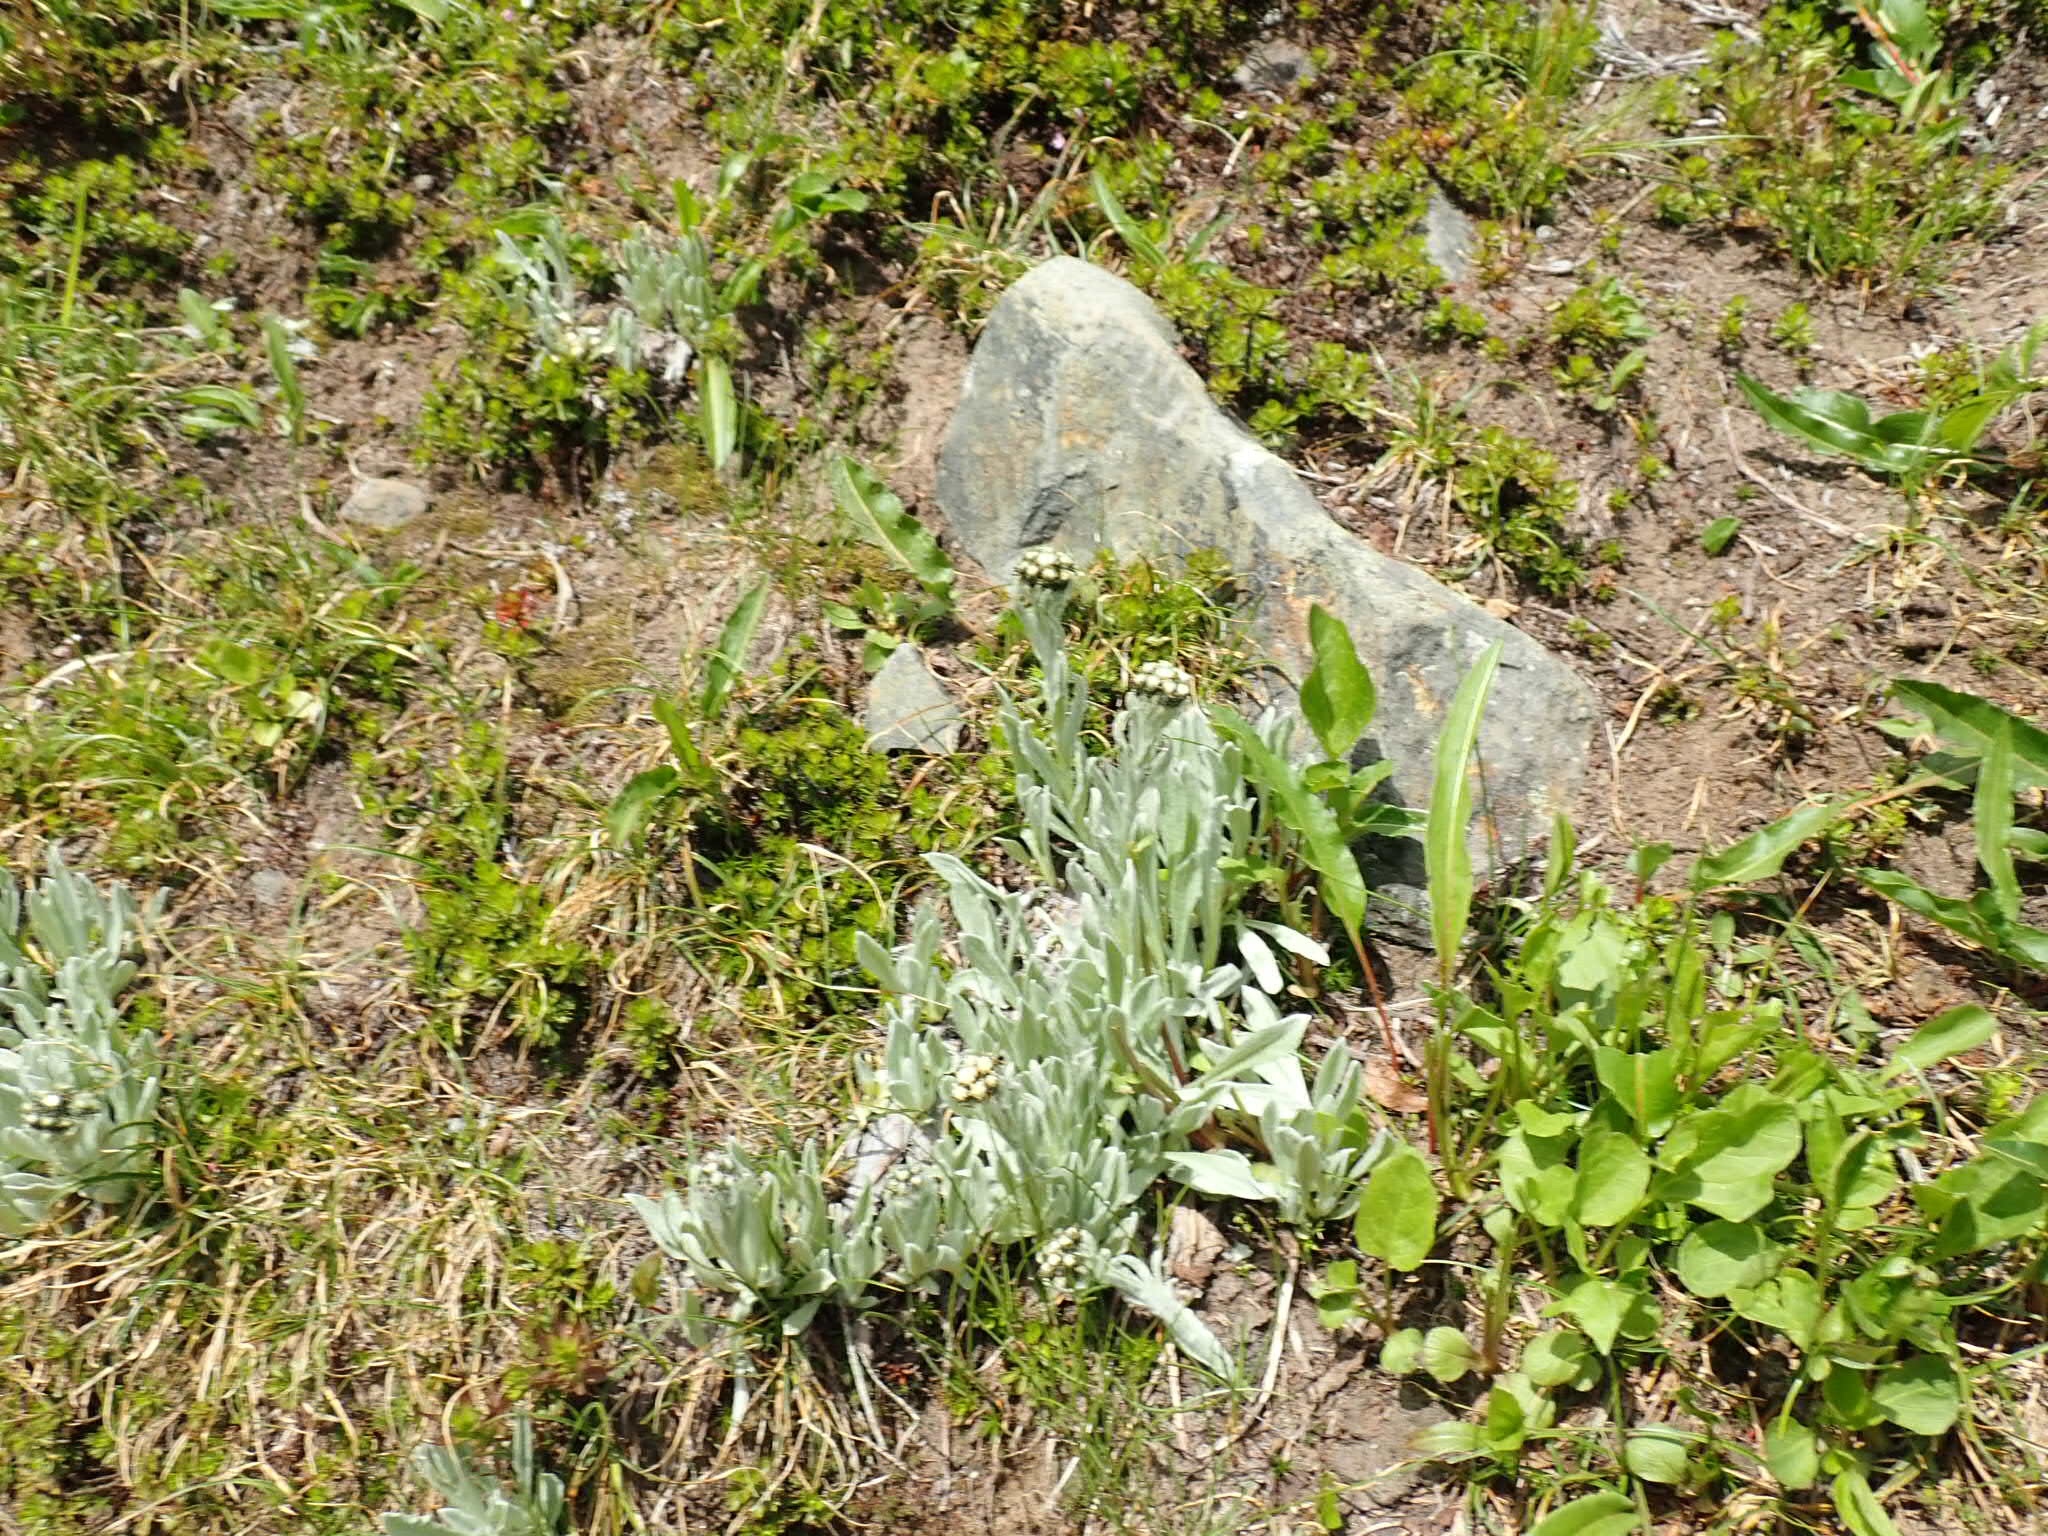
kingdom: Plantae
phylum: Tracheophyta
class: Magnoliopsida
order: Asterales
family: Asteraceae
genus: Antennaria
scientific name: Antennaria lanata
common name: Woolly pussytoes
